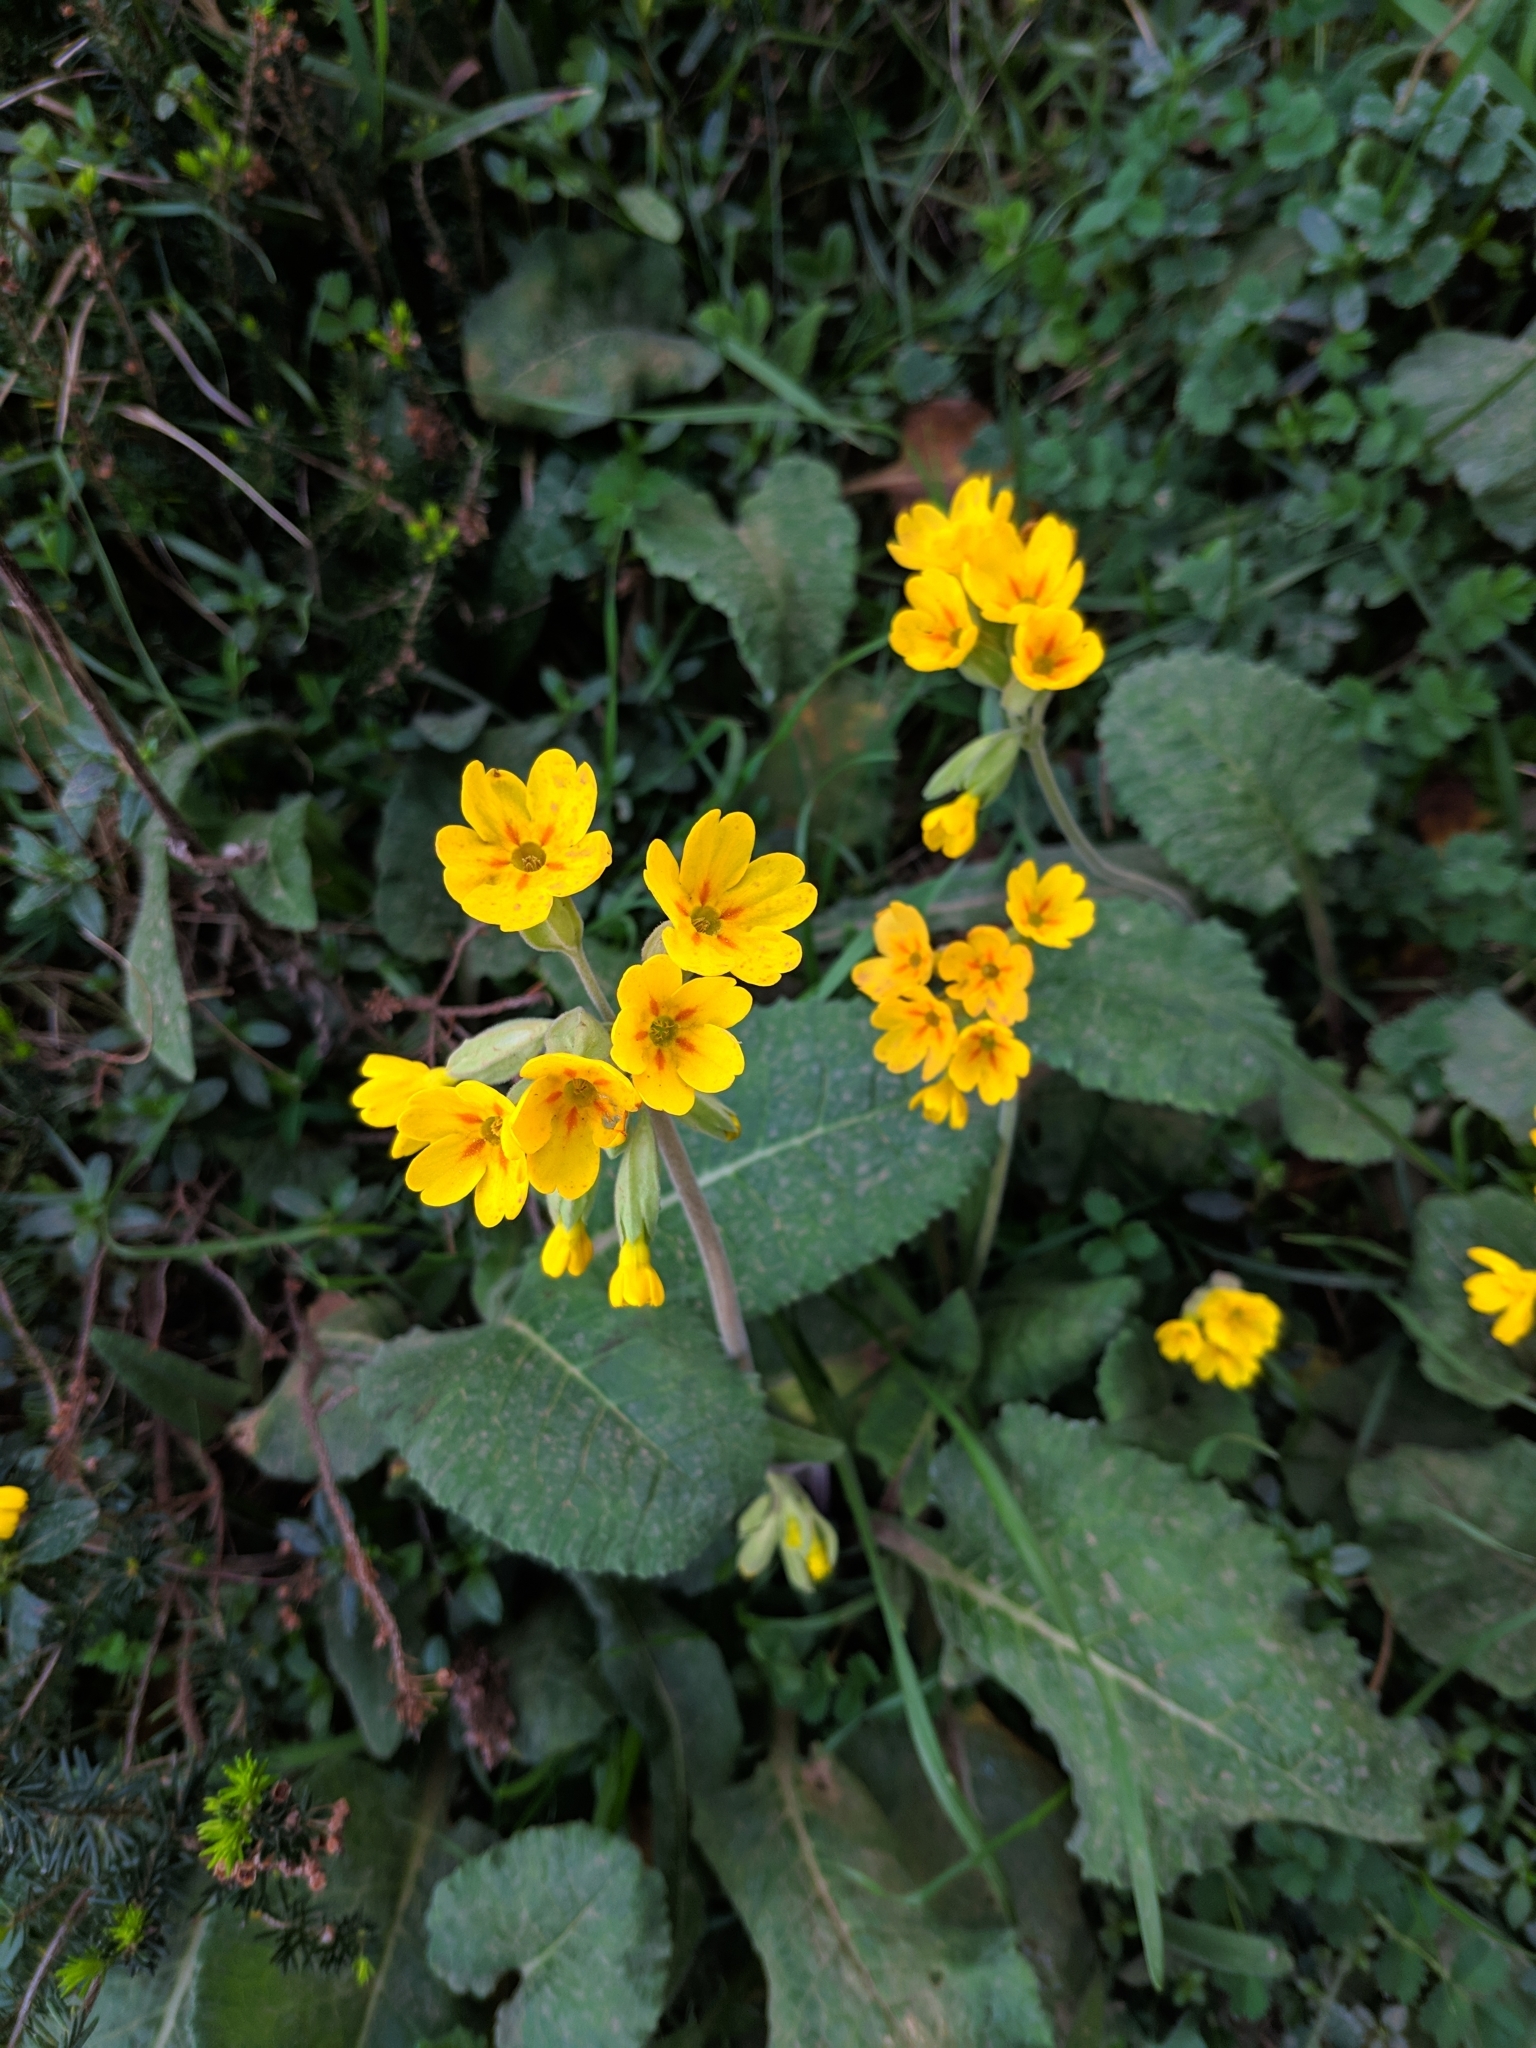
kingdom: Plantae
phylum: Tracheophyta
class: Magnoliopsida
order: Ericales
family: Primulaceae
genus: Primula
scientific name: Primula veris
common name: Cowslip
